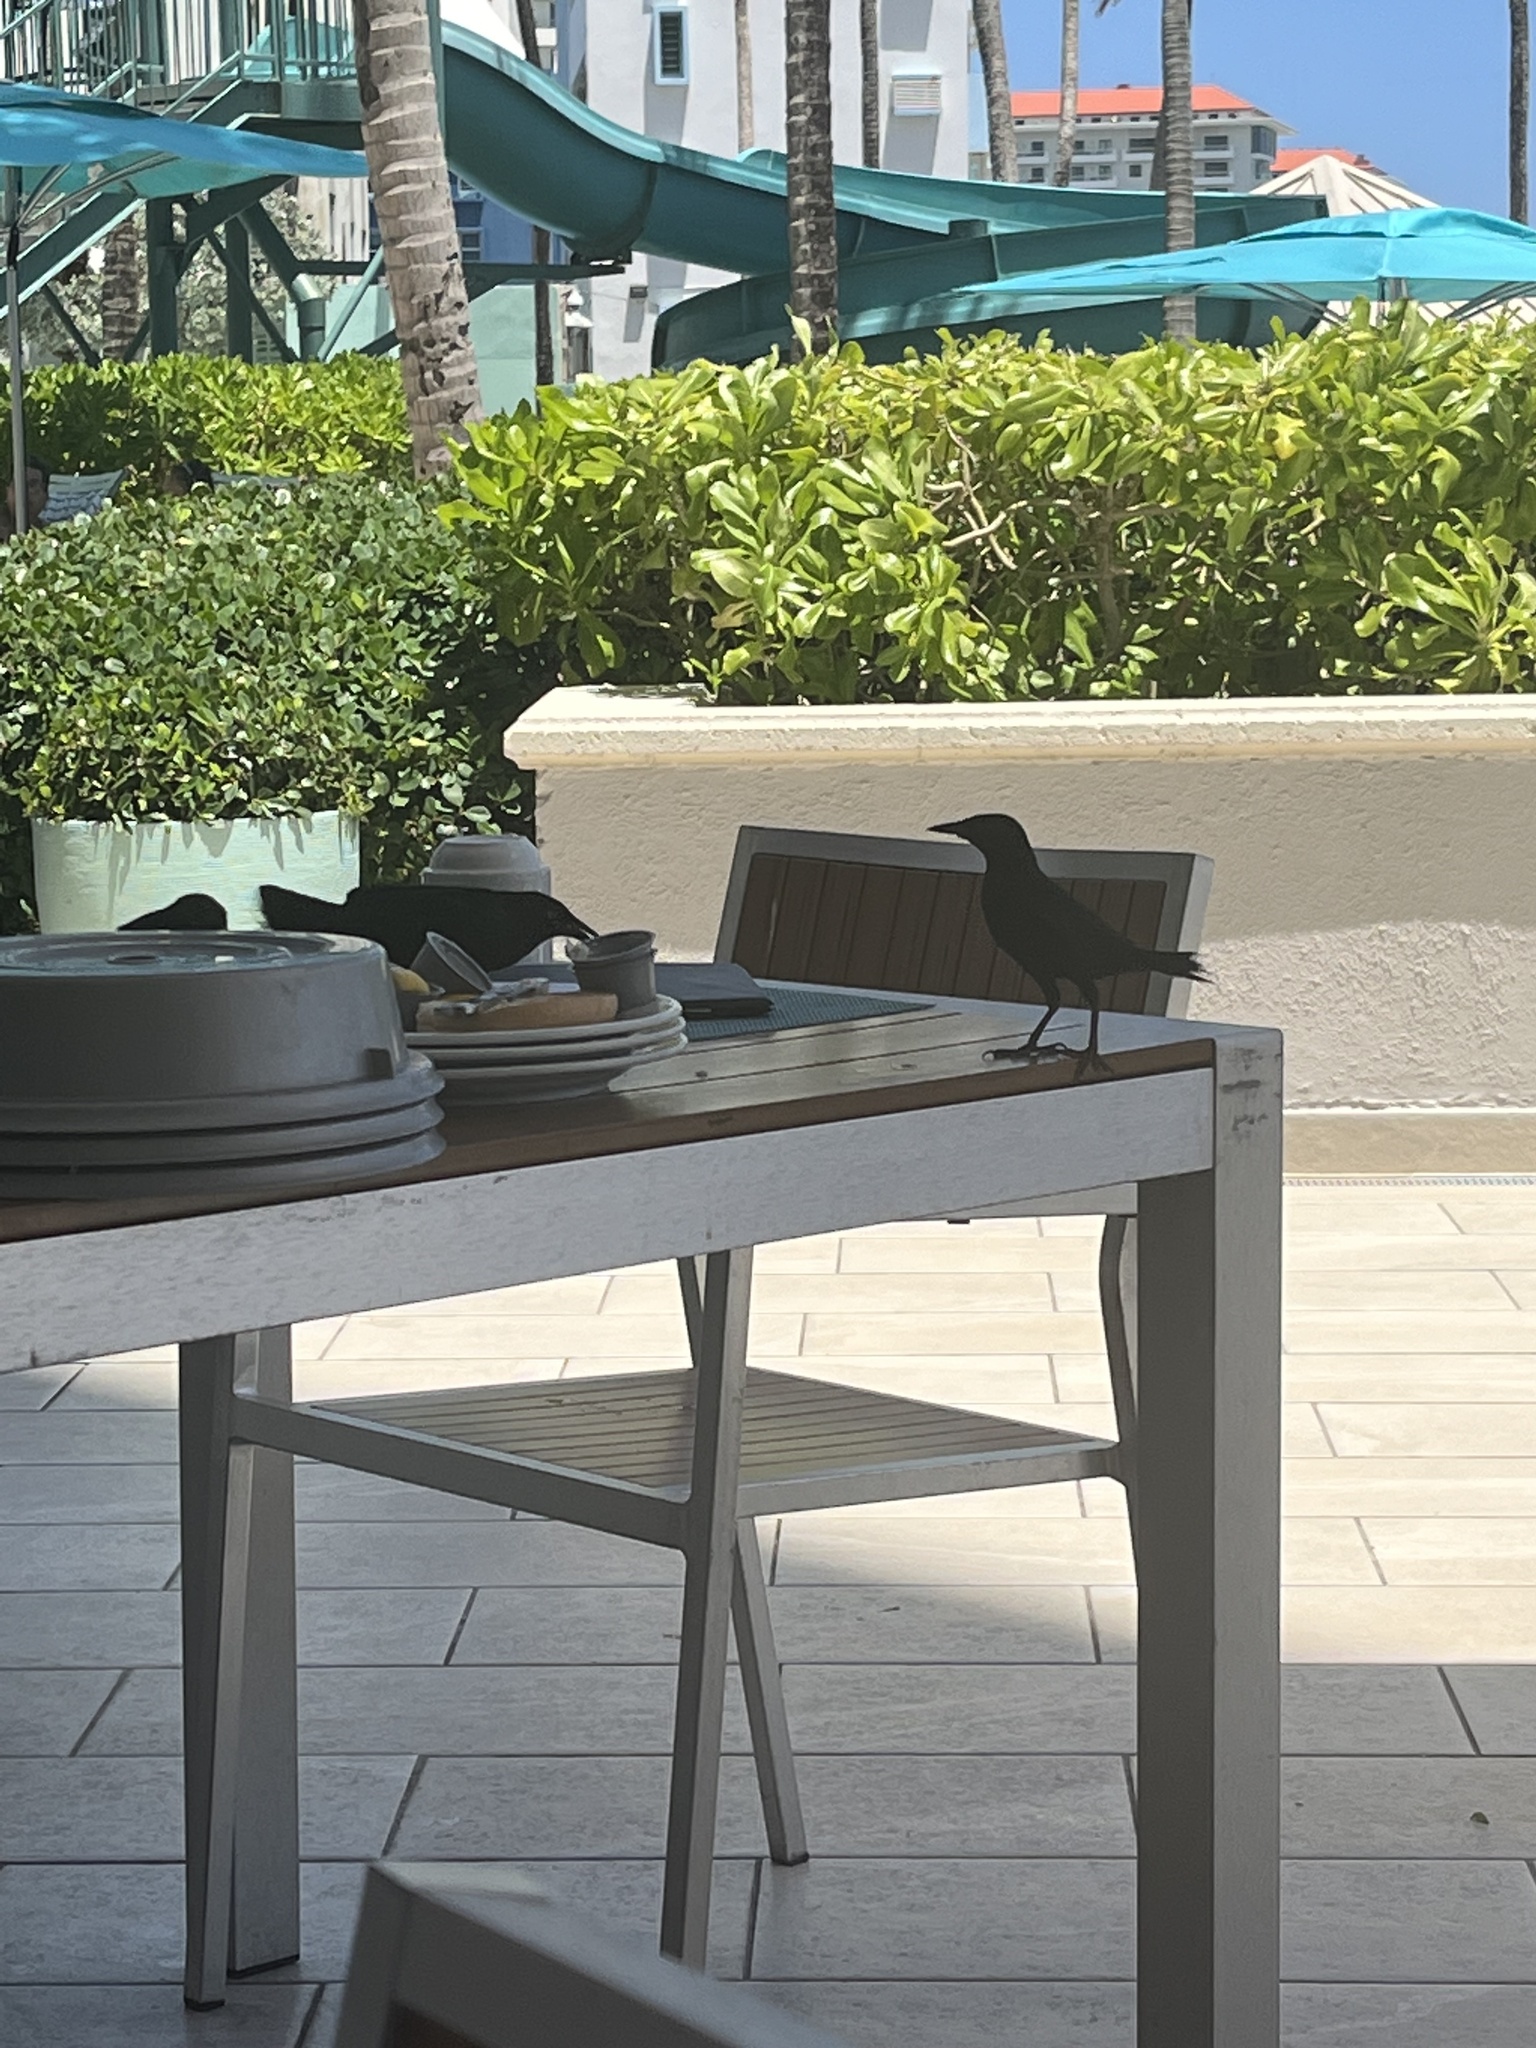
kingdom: Animalia
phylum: Chordata
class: Aves
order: Passeriformes
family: Icteridae
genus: Quiscalus
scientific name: Quiscalus niger
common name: Greater antillean grackle
